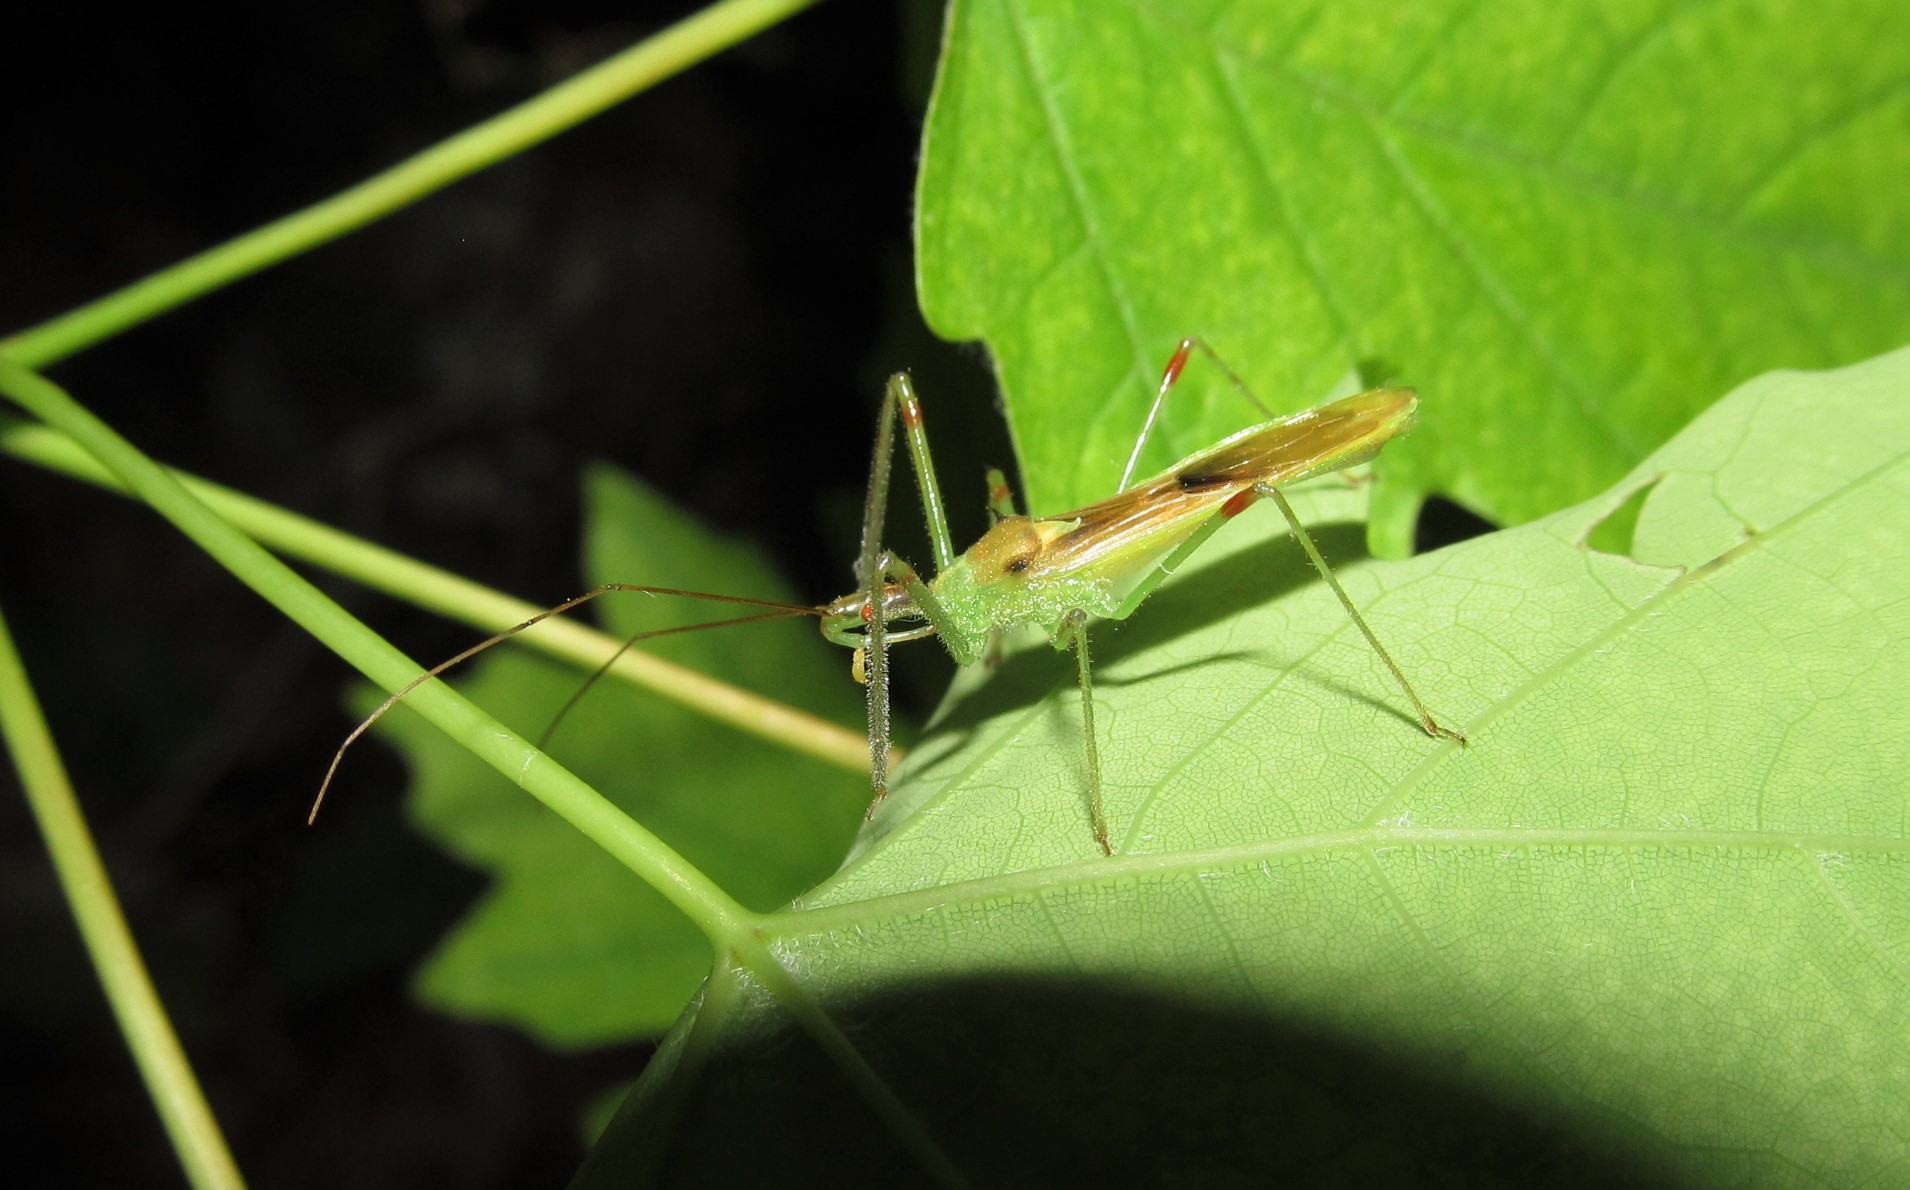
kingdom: Animalia
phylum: Arthropoda
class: Insecta
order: Hemiptera
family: Reduviidae
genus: Zelus
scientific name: Zelus luridus
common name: Pale green assassin bug
